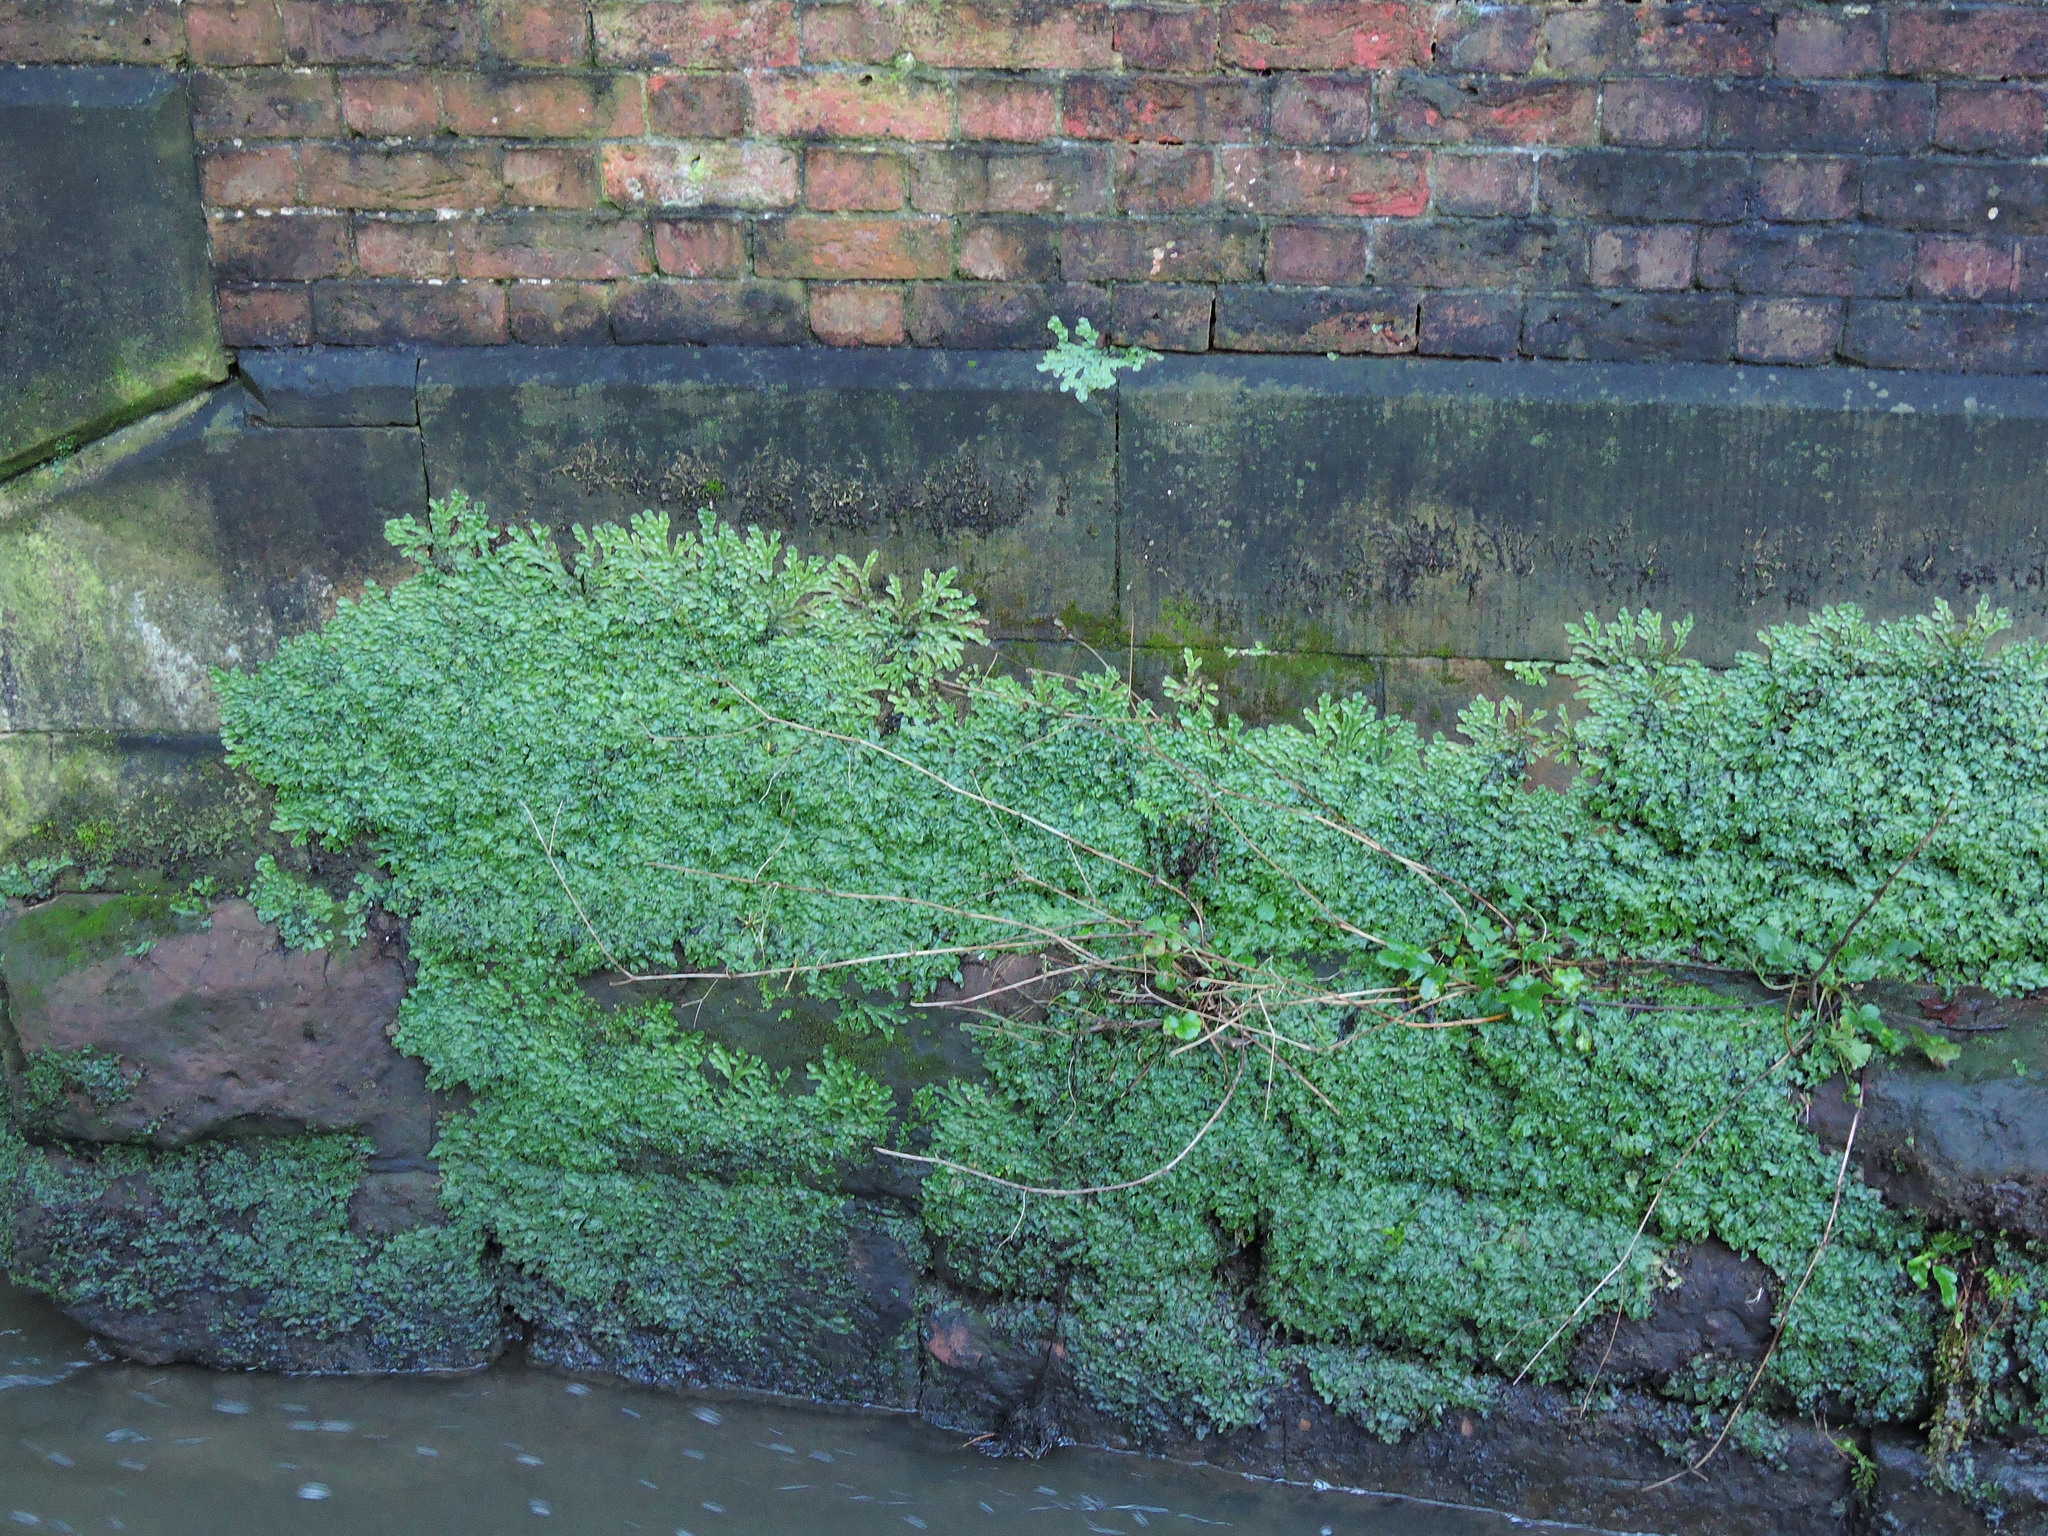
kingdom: Plantae
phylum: Marchantiophyta
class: Marchantiopsida
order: Marchantiales
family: Conocephalaceae
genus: Conocephalum
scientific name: Conocephalum conicum
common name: Great scented liverwort
